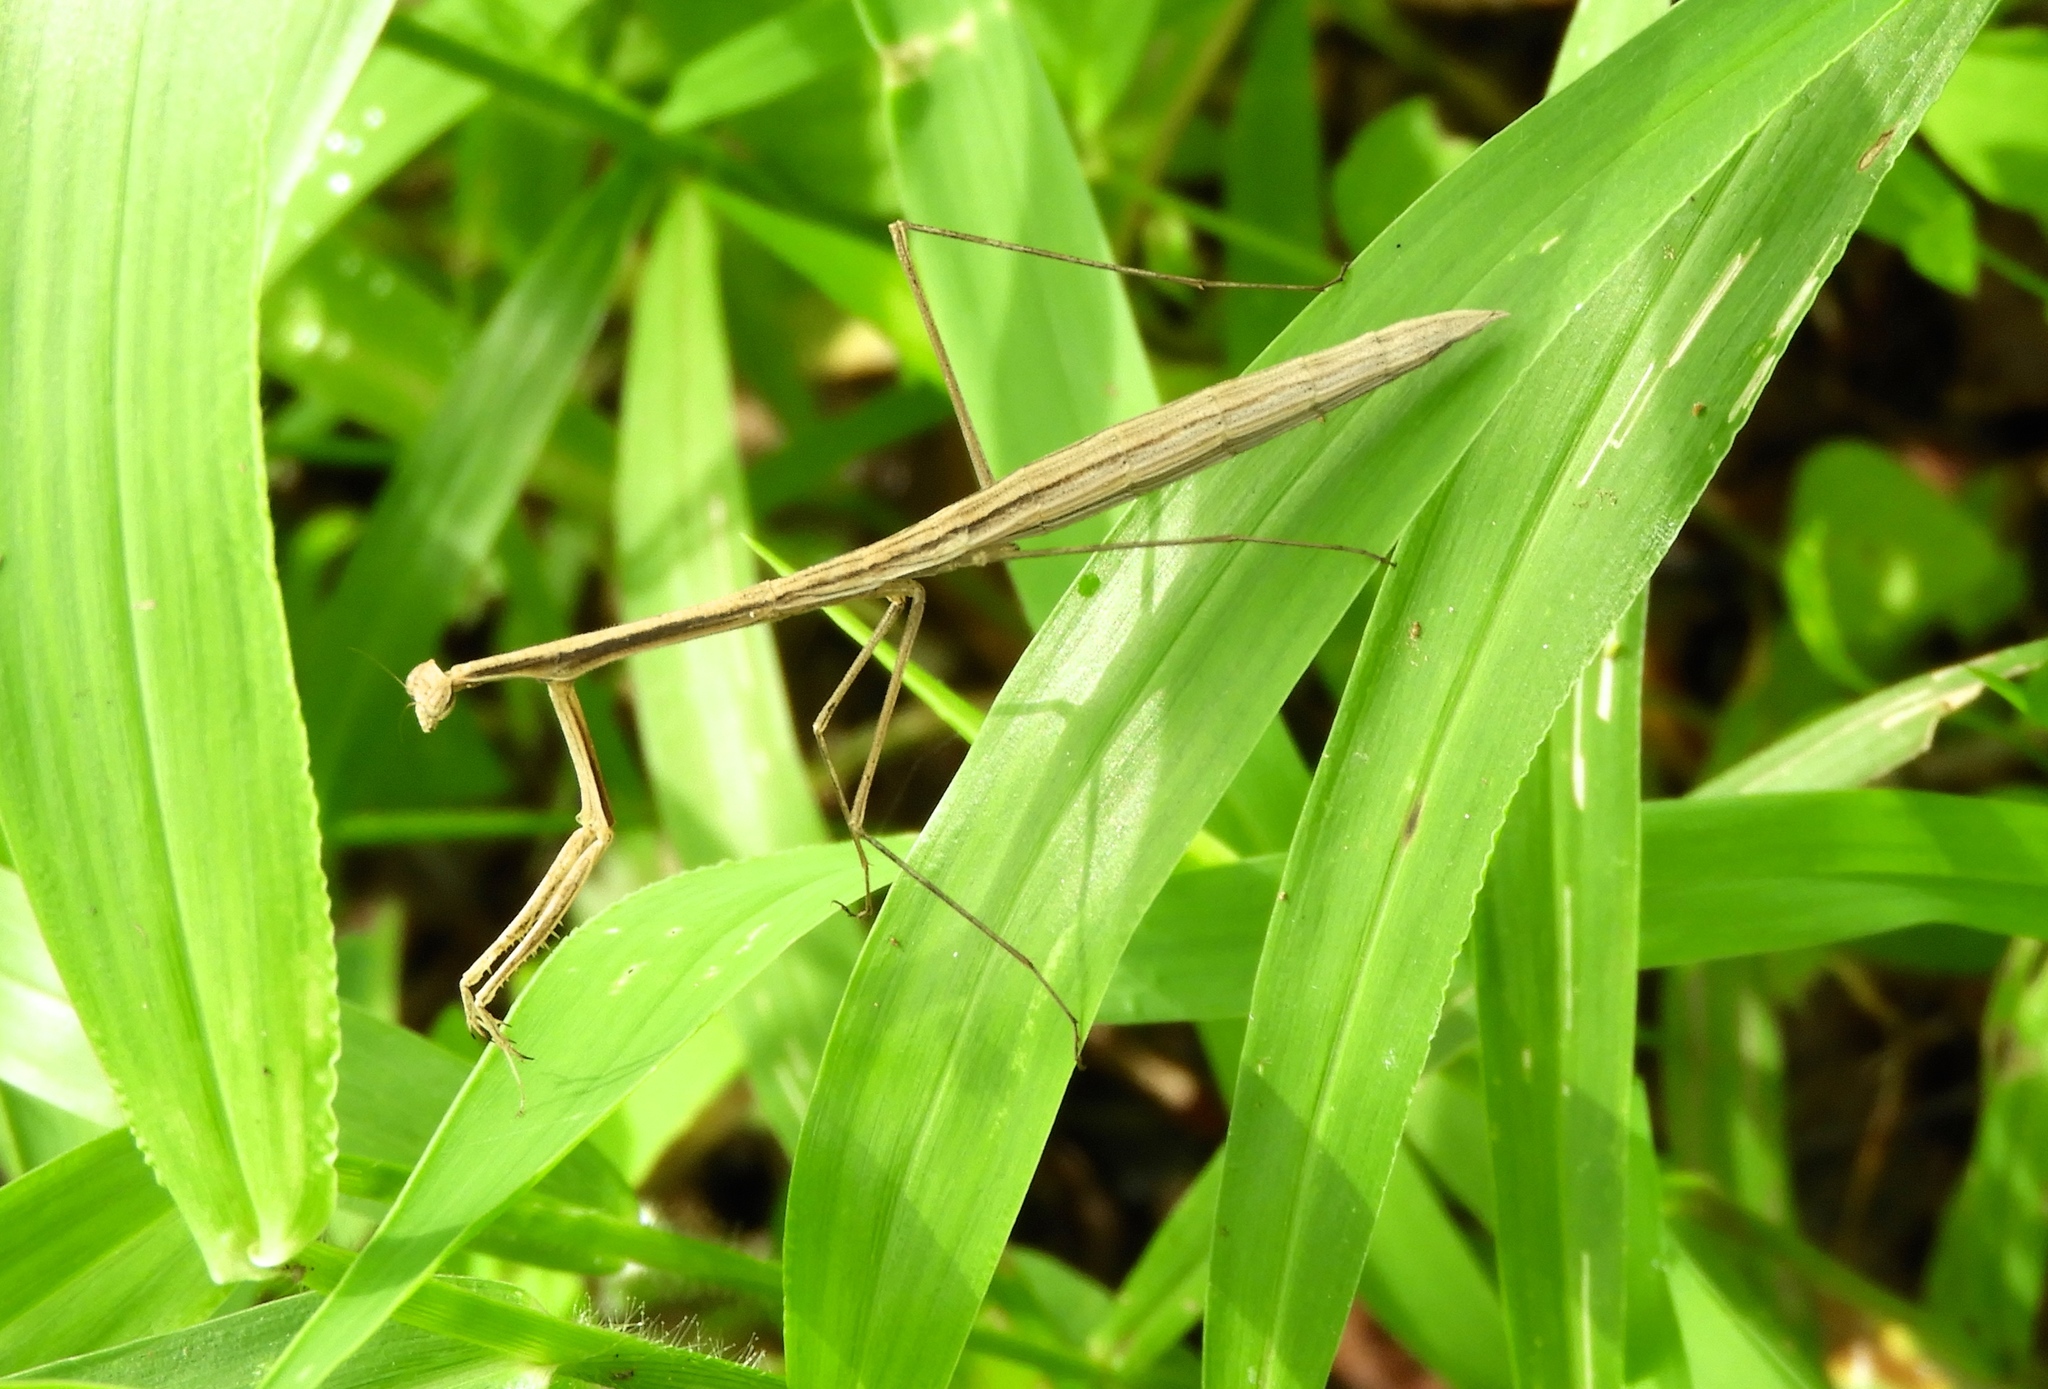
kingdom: Animalia
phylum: Arthropoda
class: Insecta
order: Mantodea
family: Thespidae
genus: Bistanta
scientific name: Bistanta mexicana
